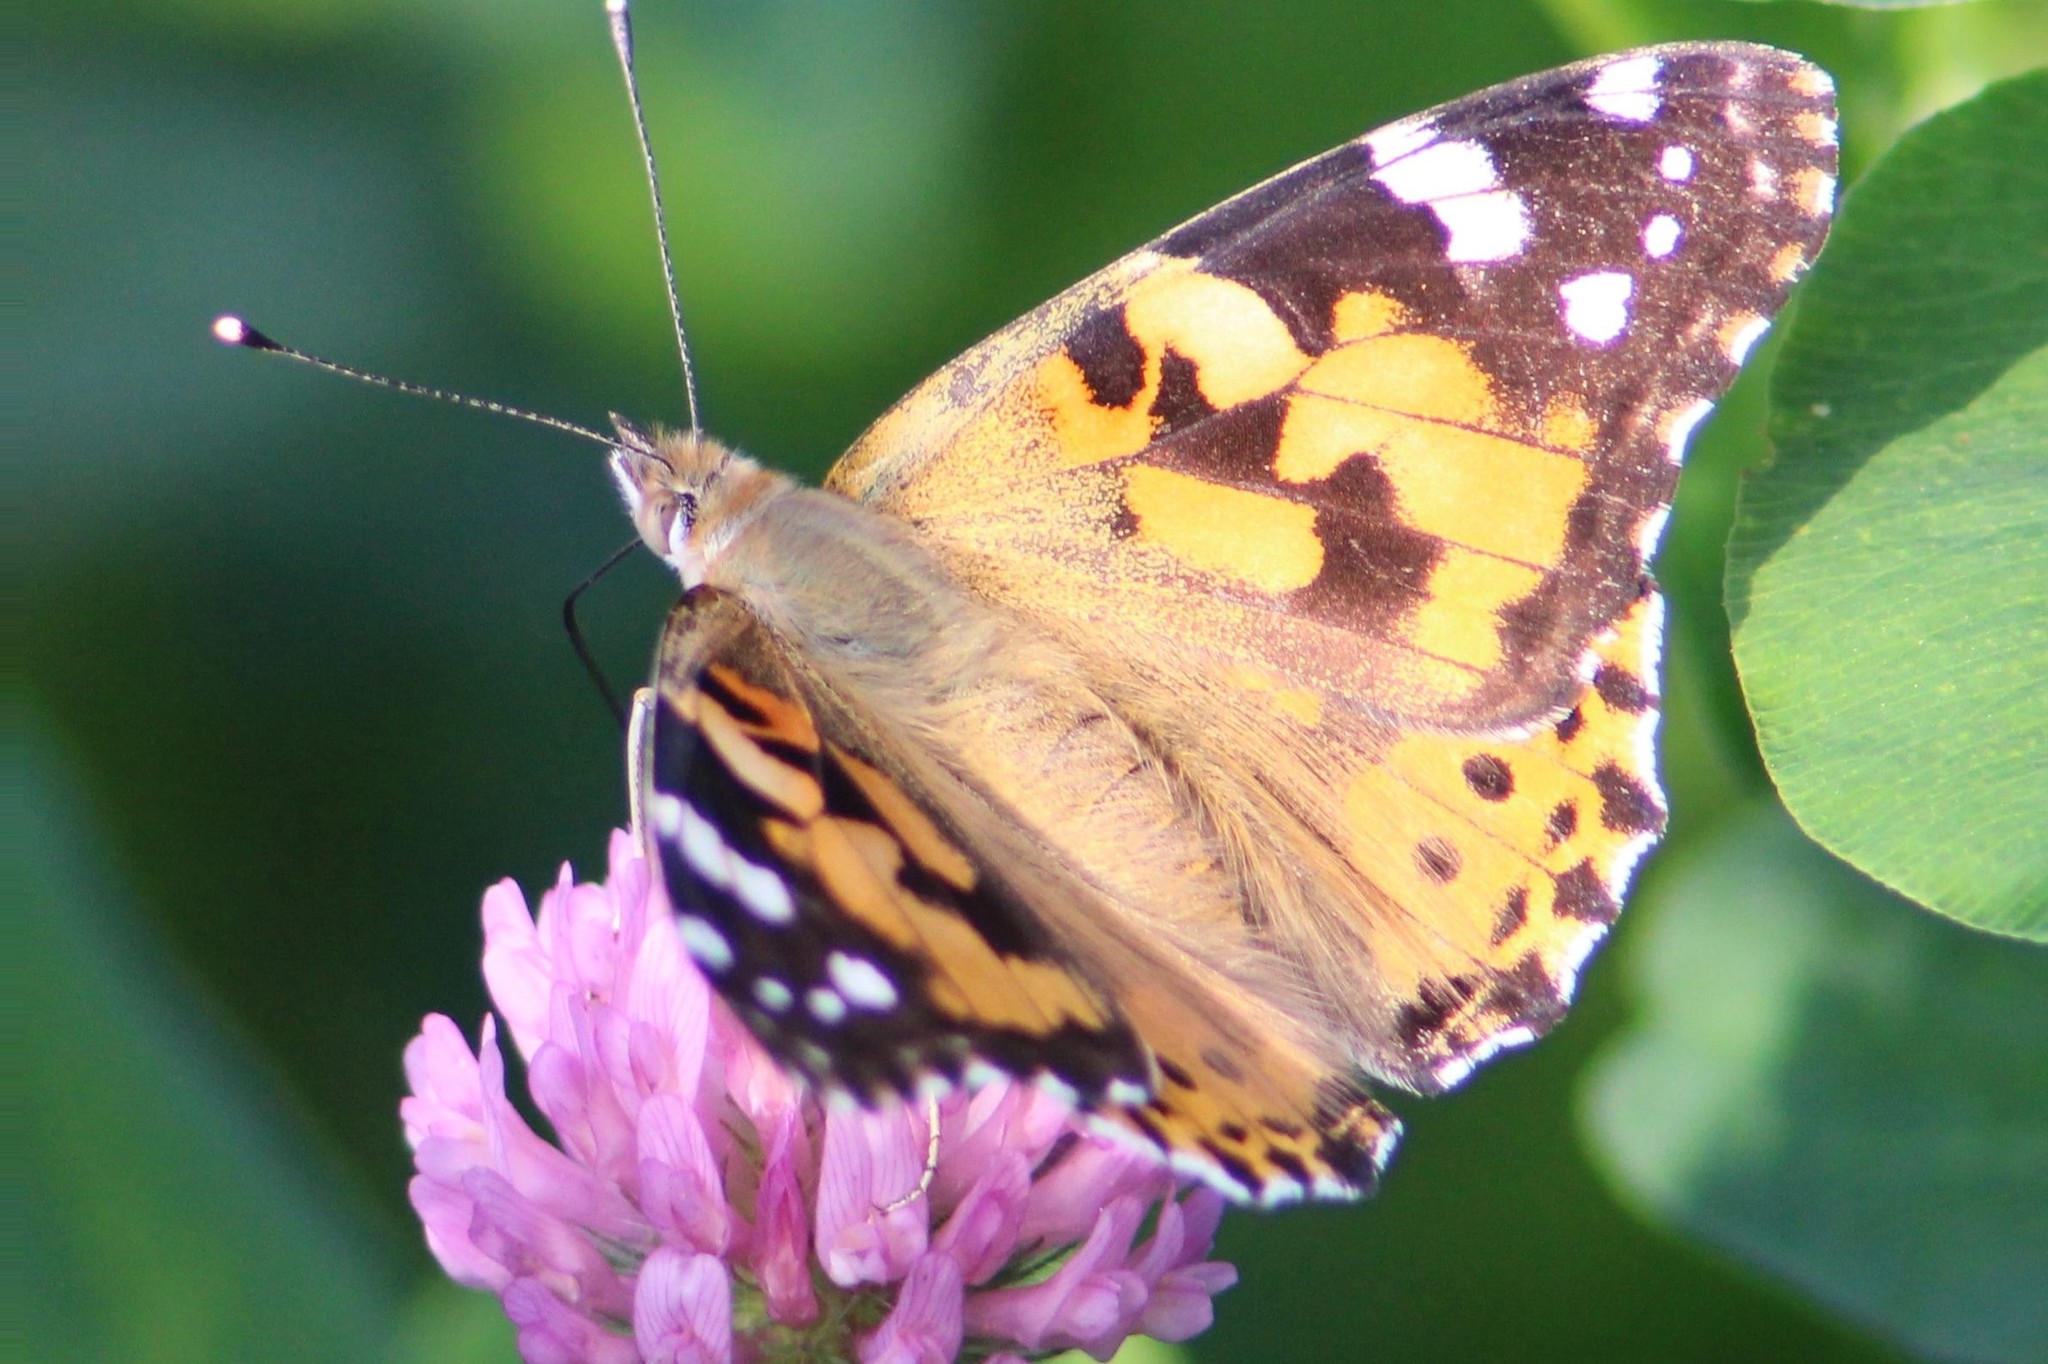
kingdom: Animalia
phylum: Arthropoda
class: Insecta
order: Lepidoptera
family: Nymphalidae
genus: Vanessa
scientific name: Vanessa cardui
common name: Painted lady
